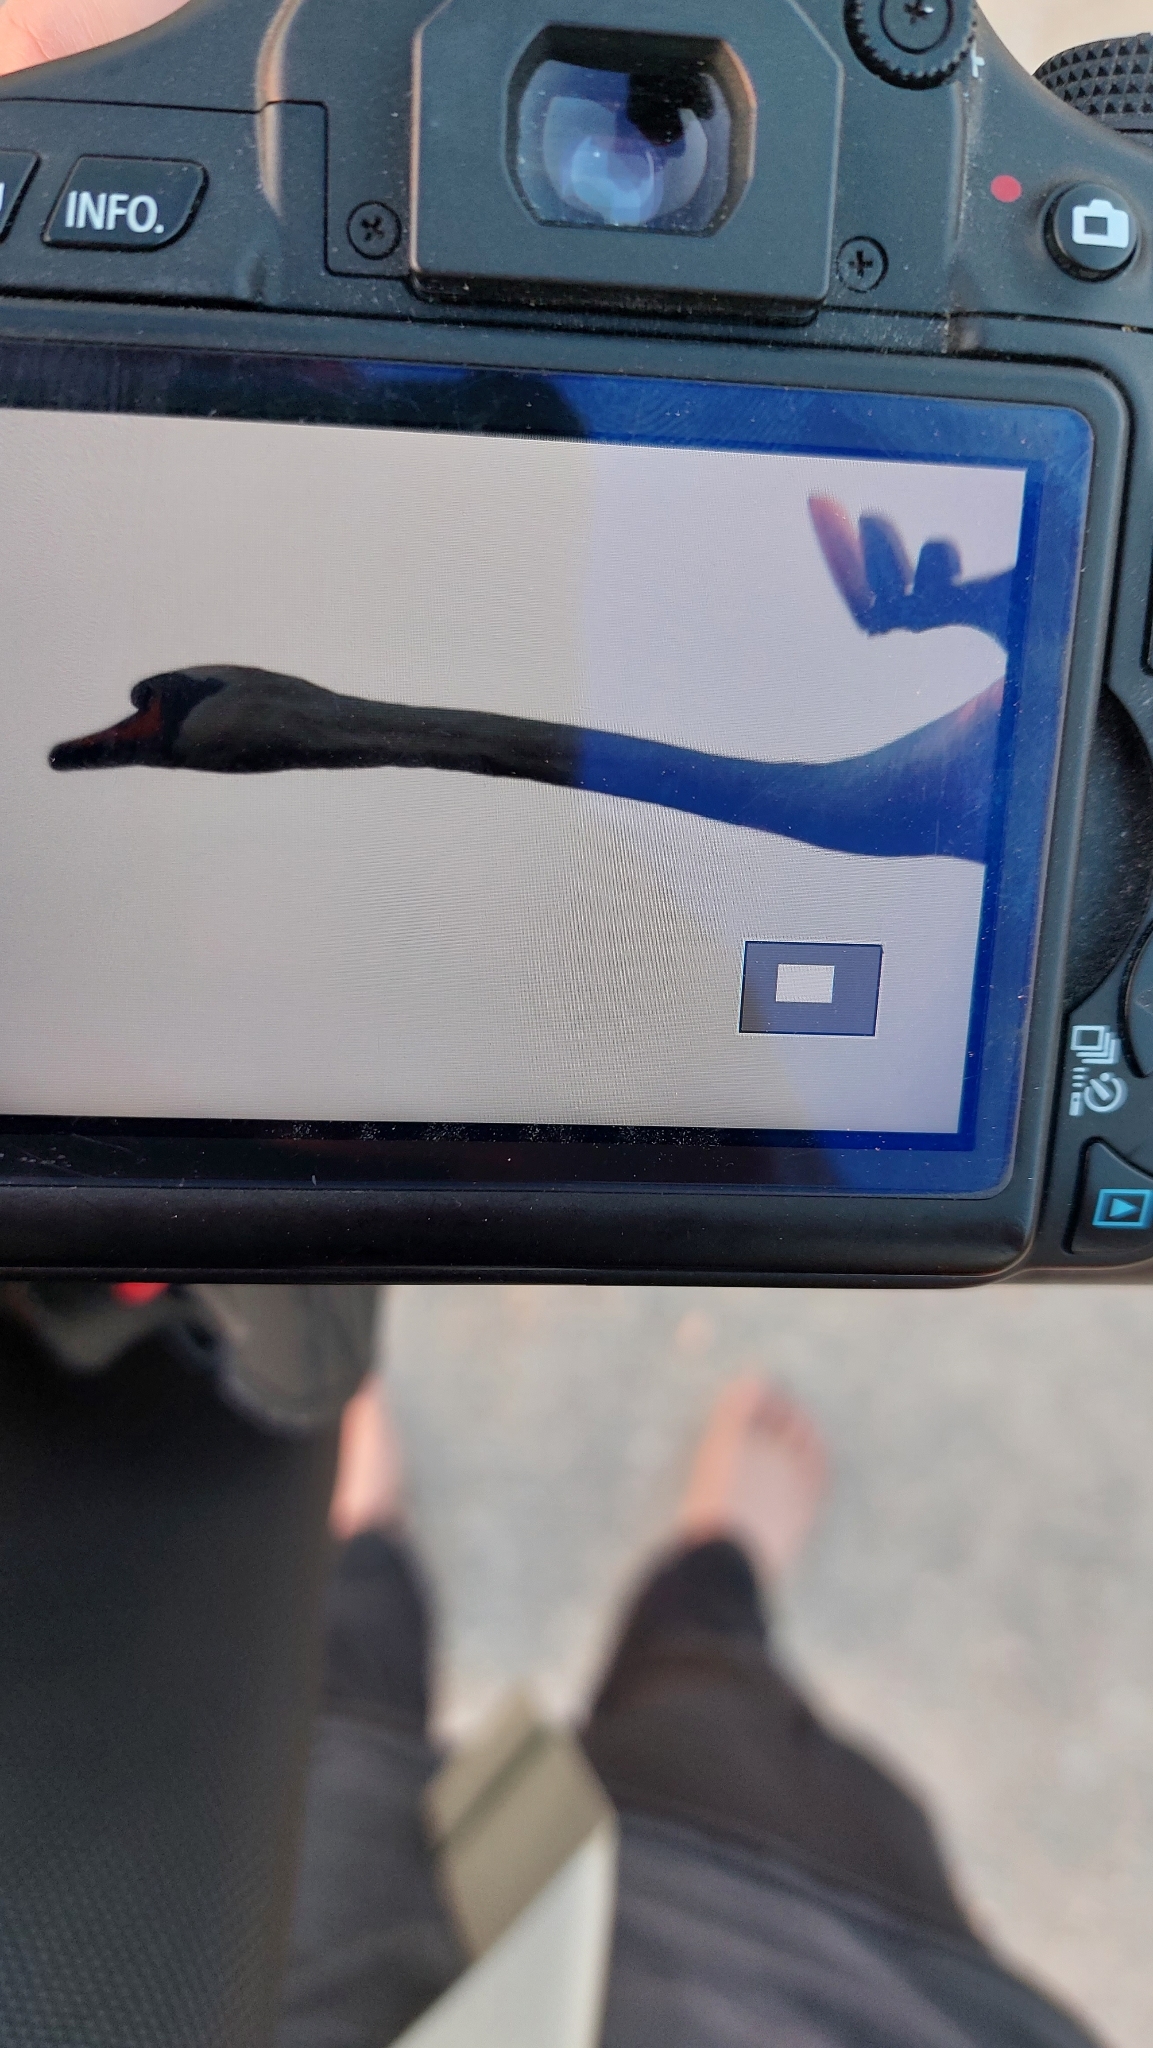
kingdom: Animalia
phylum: Chordata
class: Aves
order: Anseriformes
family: Anatidae
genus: Cygnus
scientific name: Cygnus olor
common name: Mute swan
